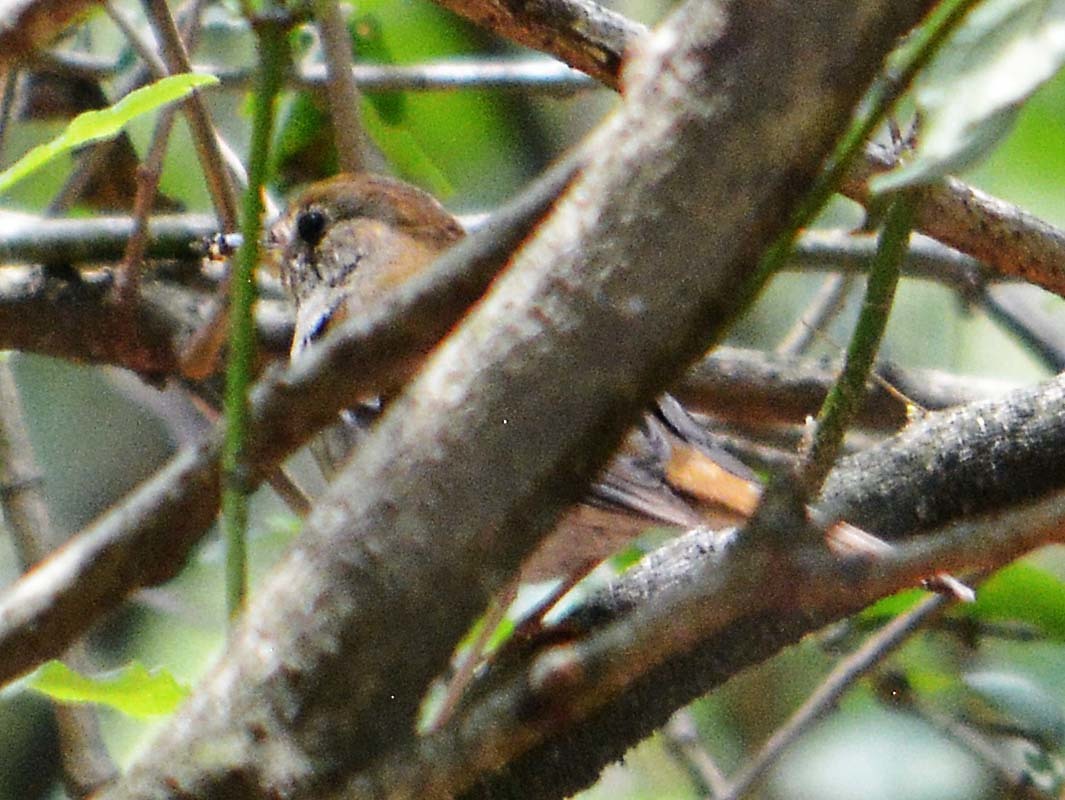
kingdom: Animalia
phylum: Chordata
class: Aves
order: Passeriformes
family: Turdidae
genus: Catharus
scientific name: Catharus occidentalis
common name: Russet nightingale-thrush
